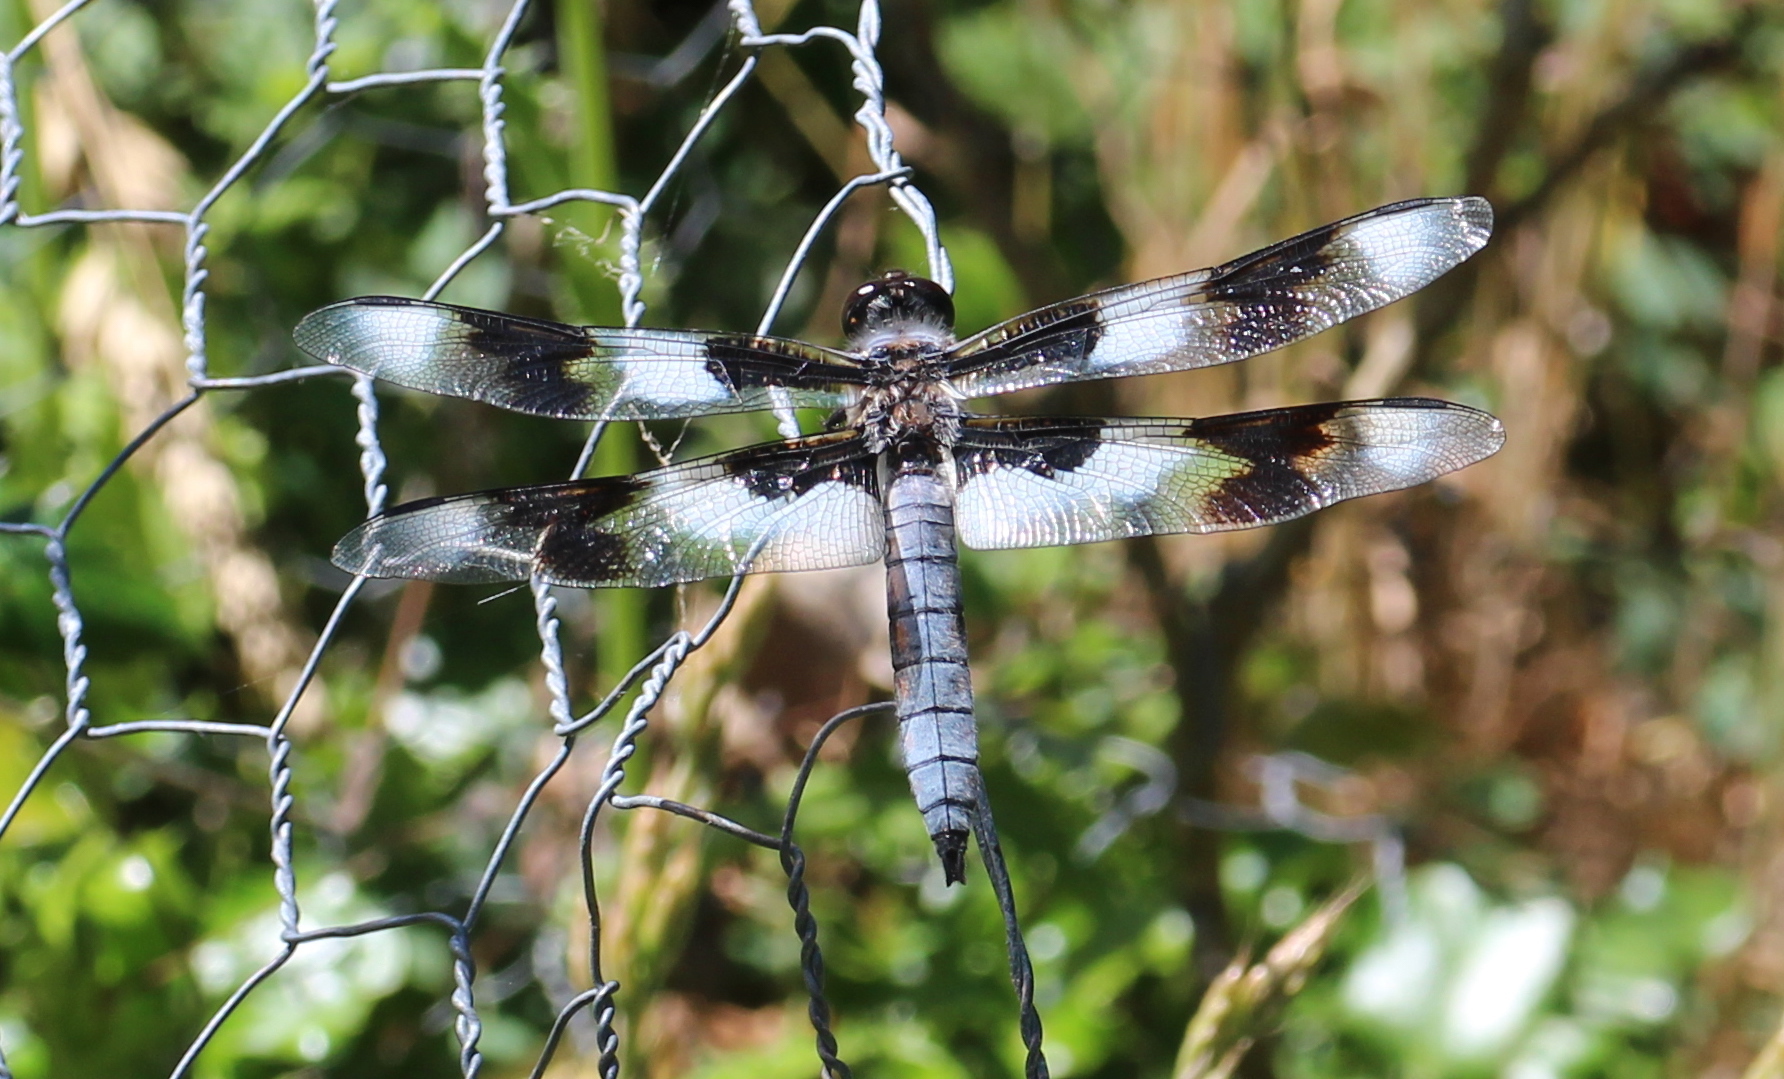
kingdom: Animalia
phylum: Arthropoda
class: Insecta
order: Odonata
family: Libellulidae
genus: Libellula
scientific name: Libellula forensis
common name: Eight-spotted skimmer
